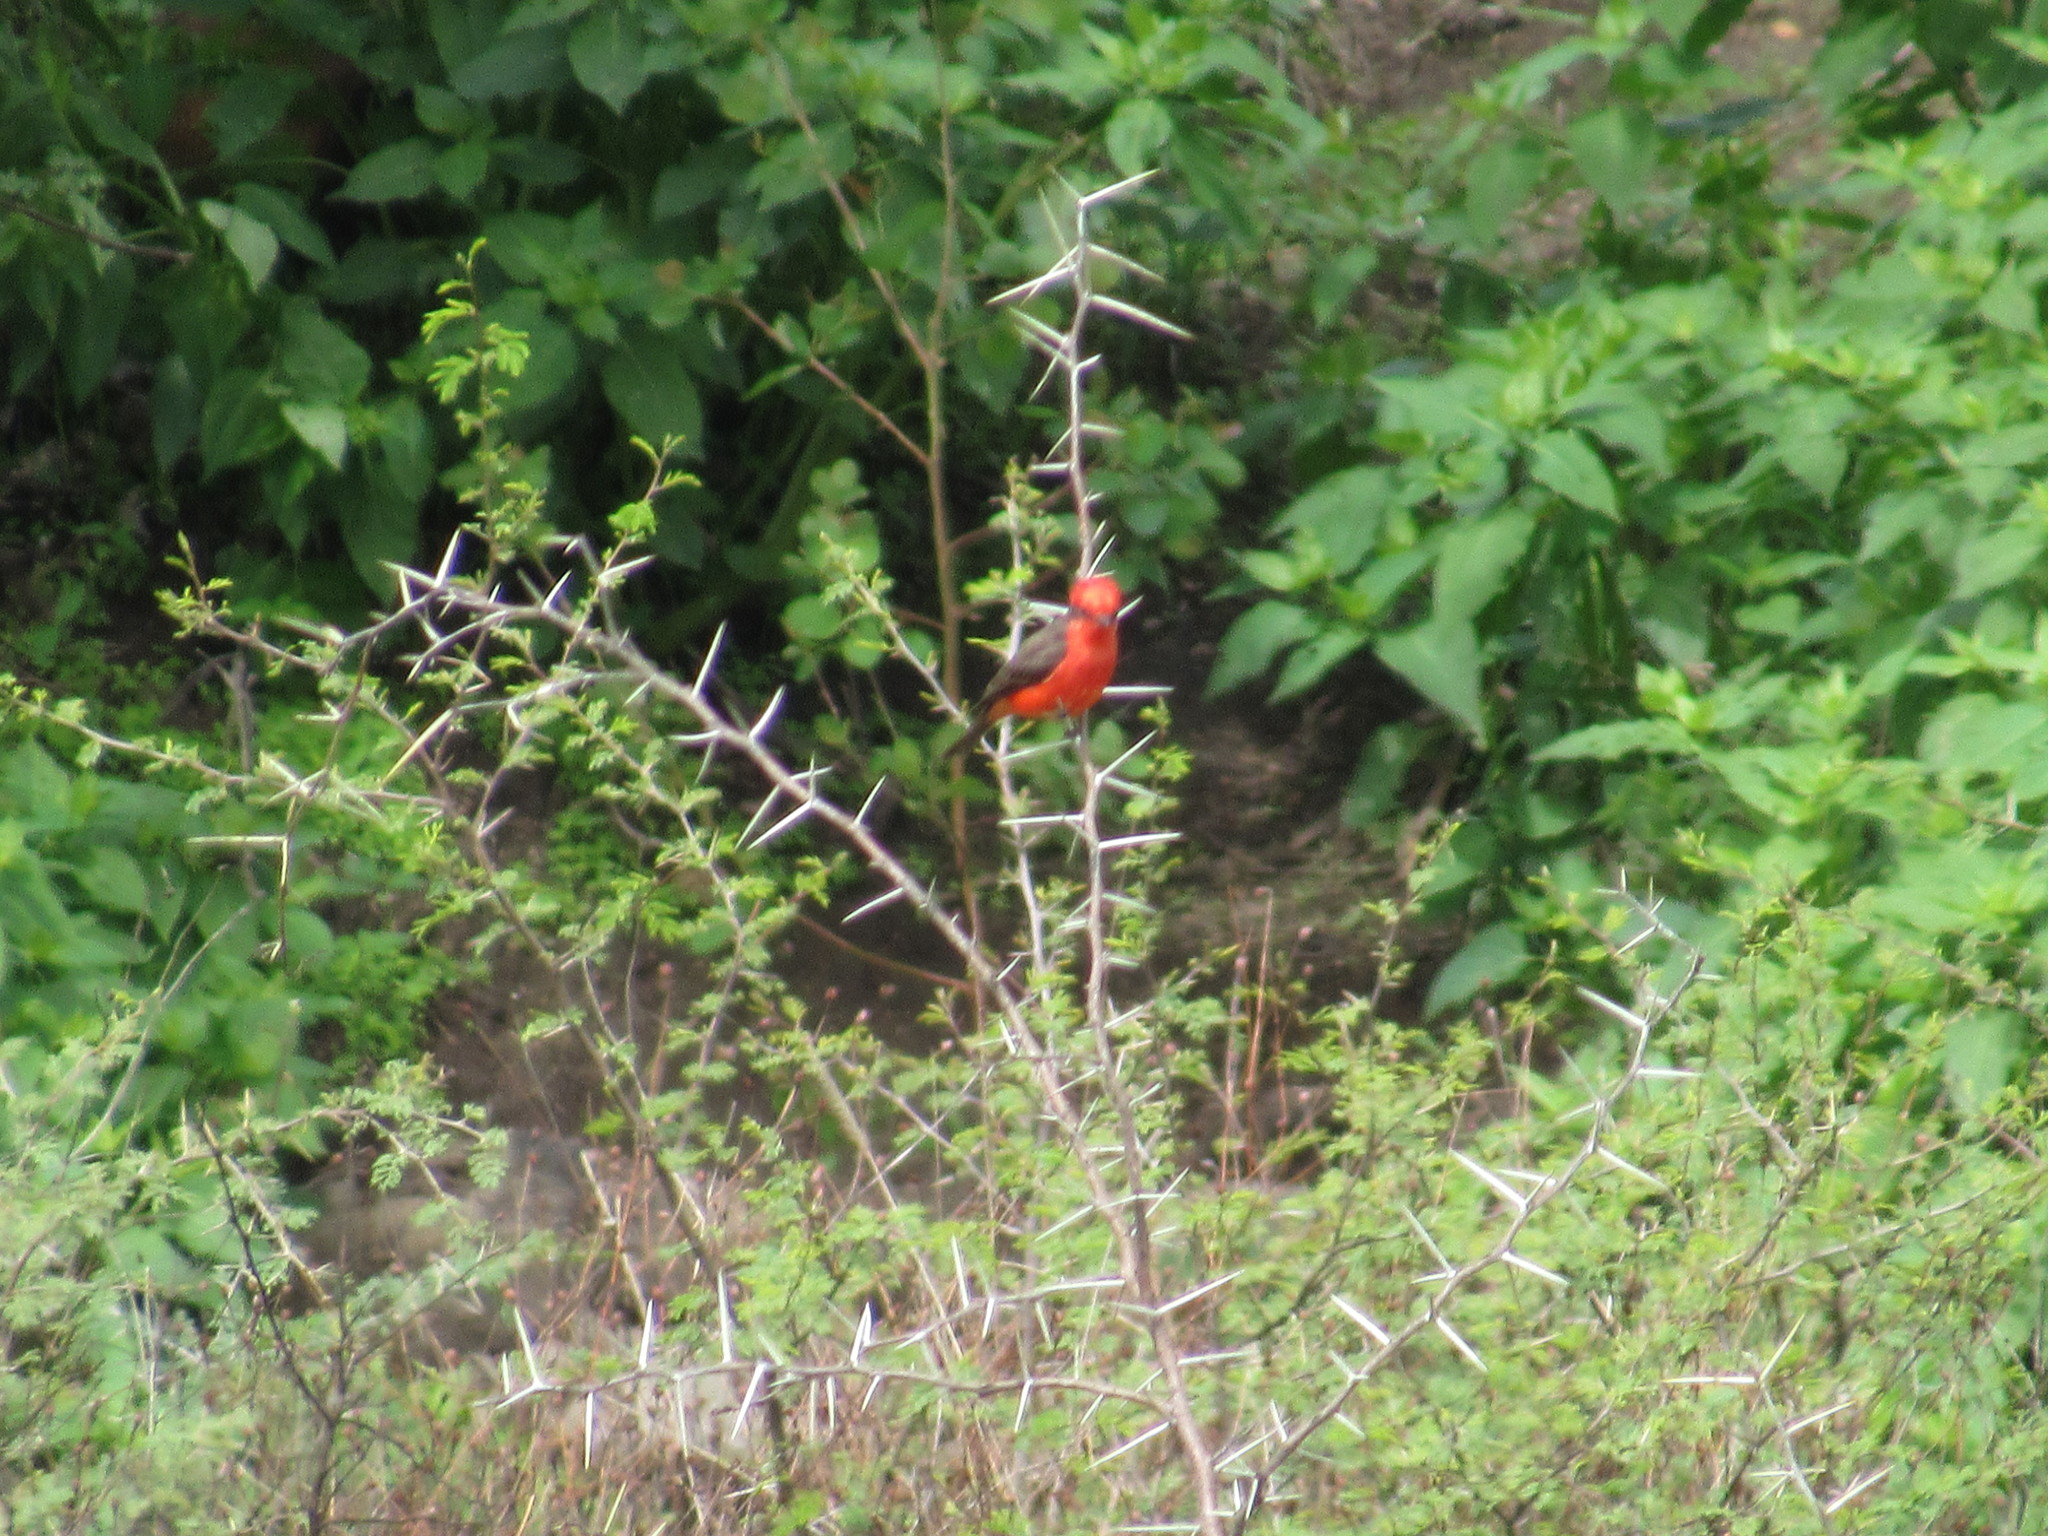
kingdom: Animalia
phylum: Chordata
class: Aves
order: Passeriformes
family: Tyrannidae
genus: Pyrocephalus
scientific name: Pyrocephalus rubinus
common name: Vermilion flycatcher
